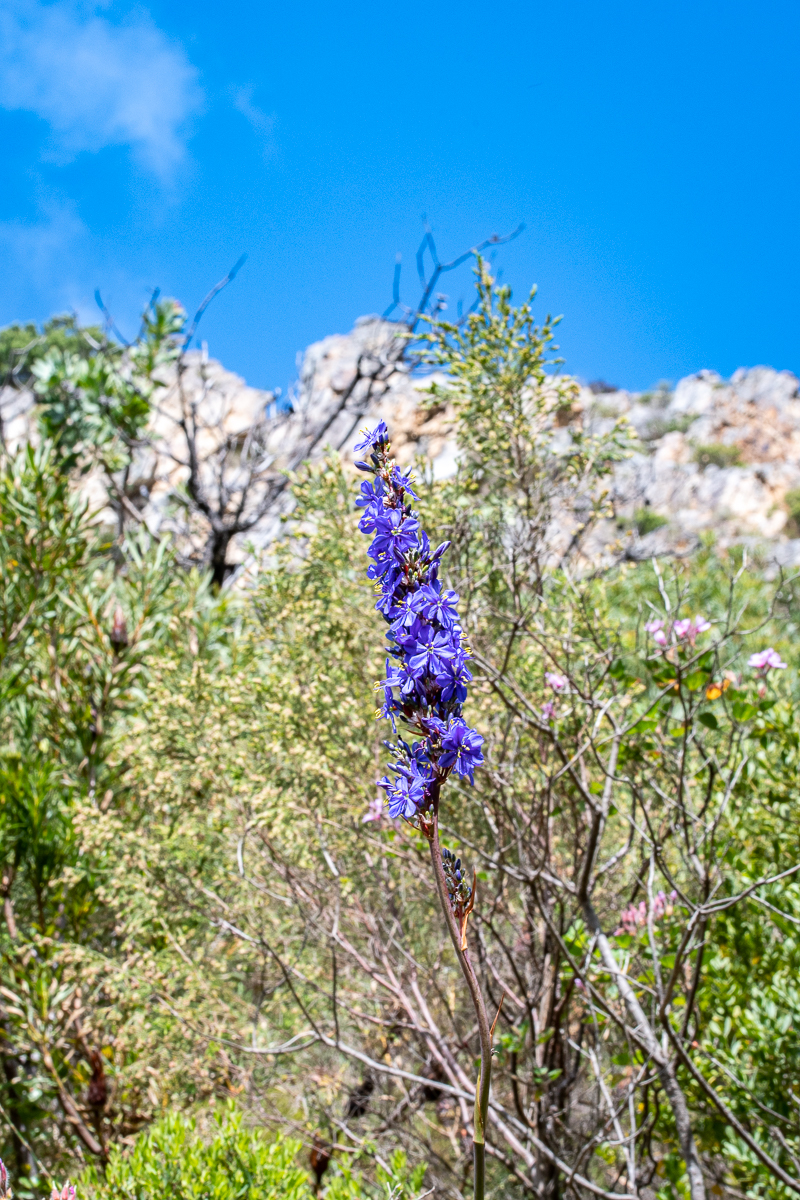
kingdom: Plantae
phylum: Tracheophyta
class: Liliopsida
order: Asparagales
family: Iridaceae
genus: Aristea
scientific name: Aristea capitata
